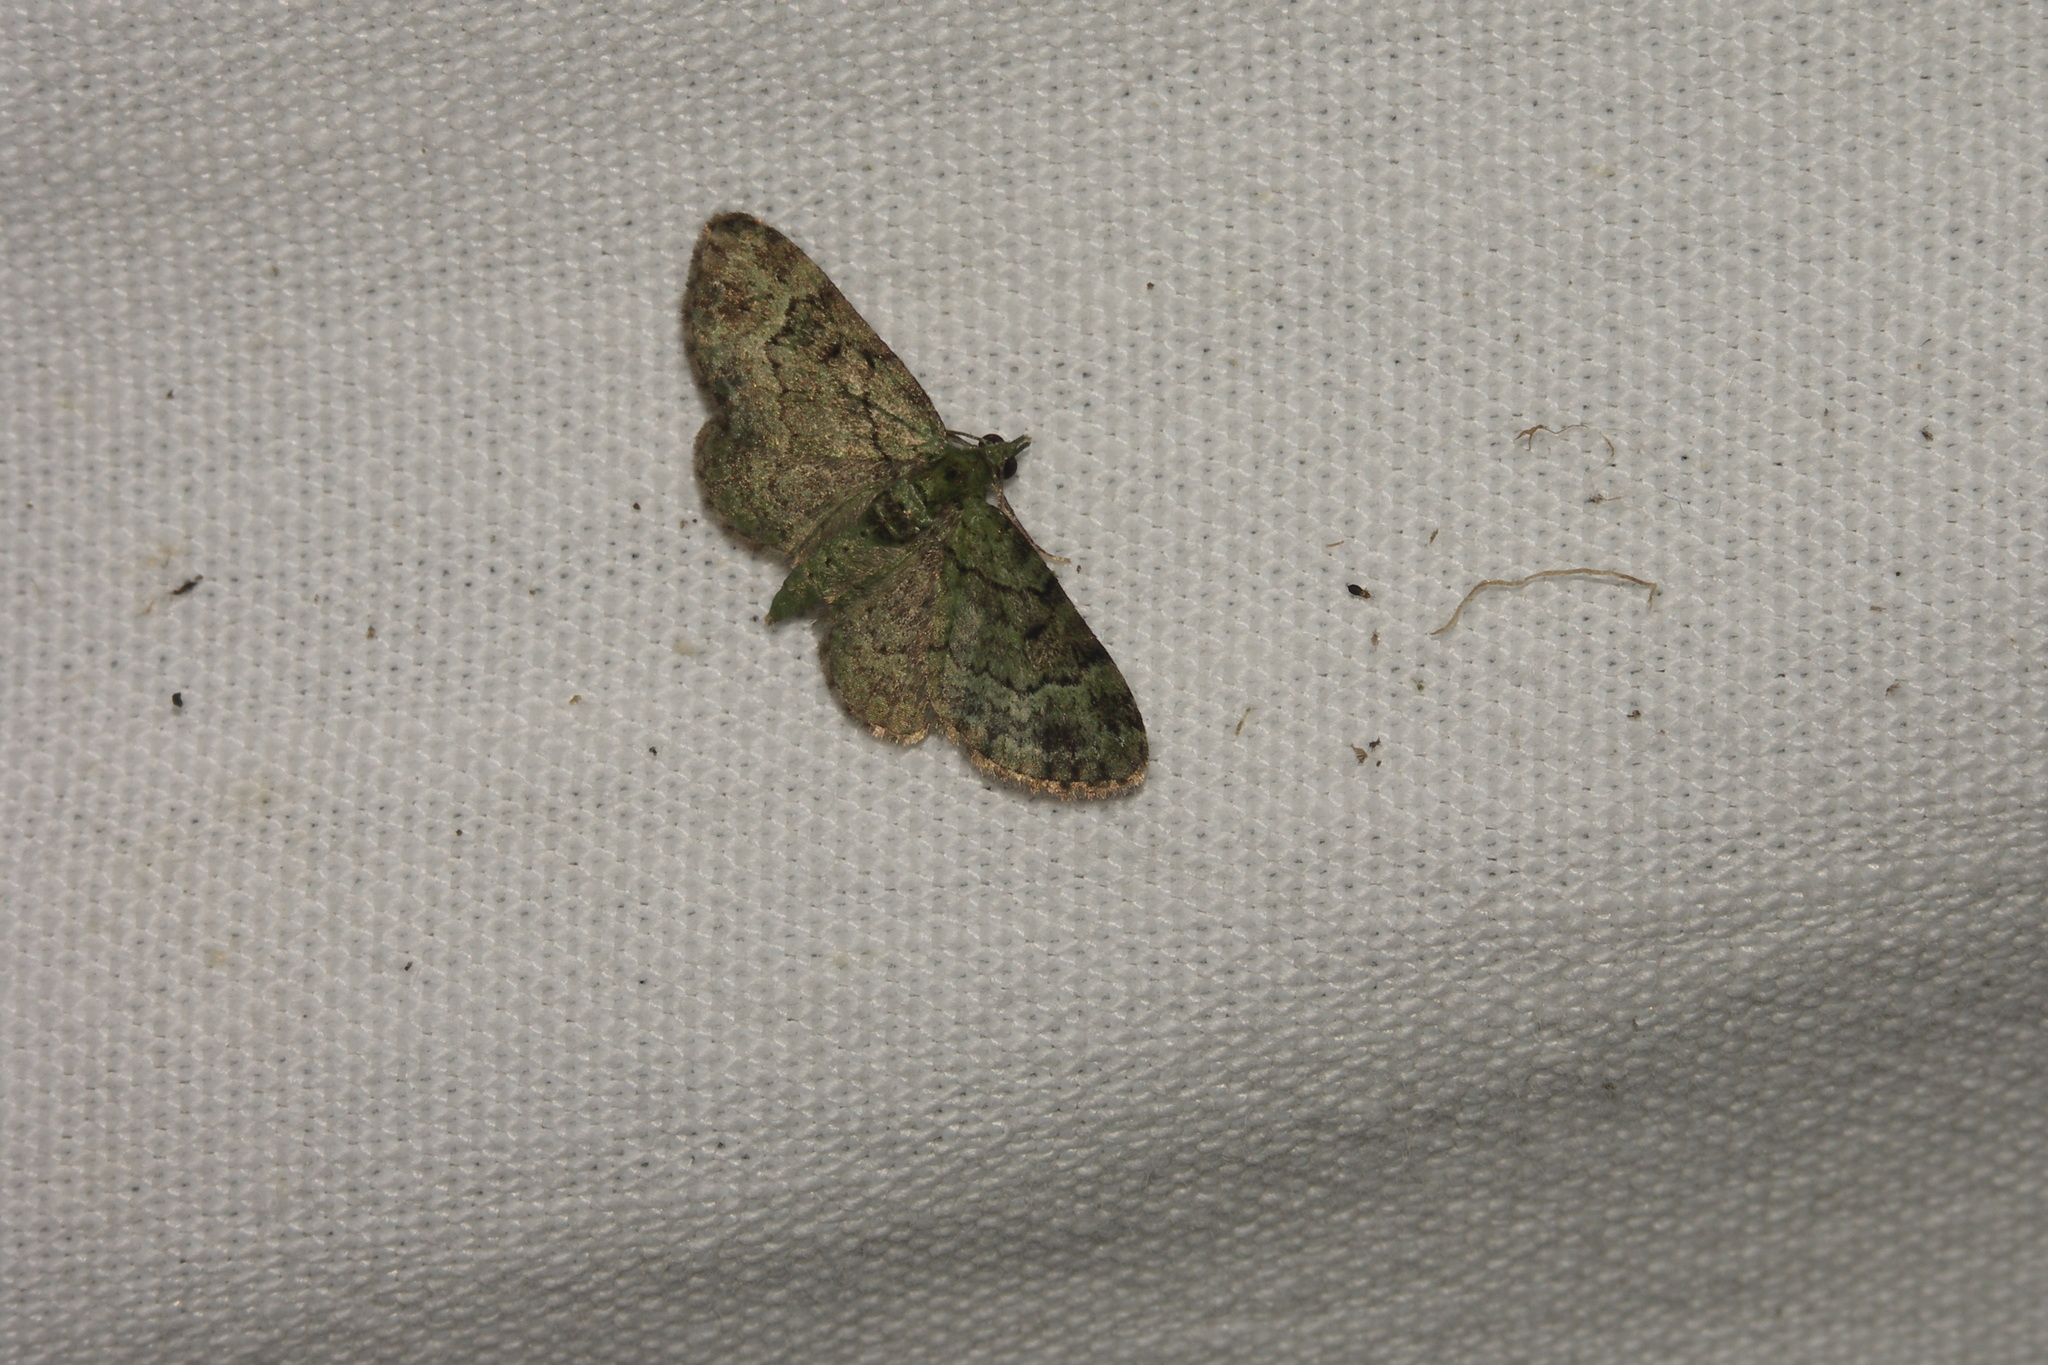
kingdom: Animalia
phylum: Arthropoda
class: Insecta
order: Lepidoptera
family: Geometridae
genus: Pasiphila
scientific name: Pasiphila rectangulata
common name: Green pug
